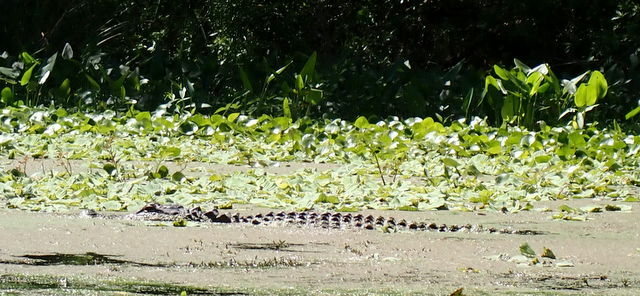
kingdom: Animalia
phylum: Chordata
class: Crocodylia
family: Alligatoridae
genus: Alligator
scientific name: Alligator mississippiensis
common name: American alligator
